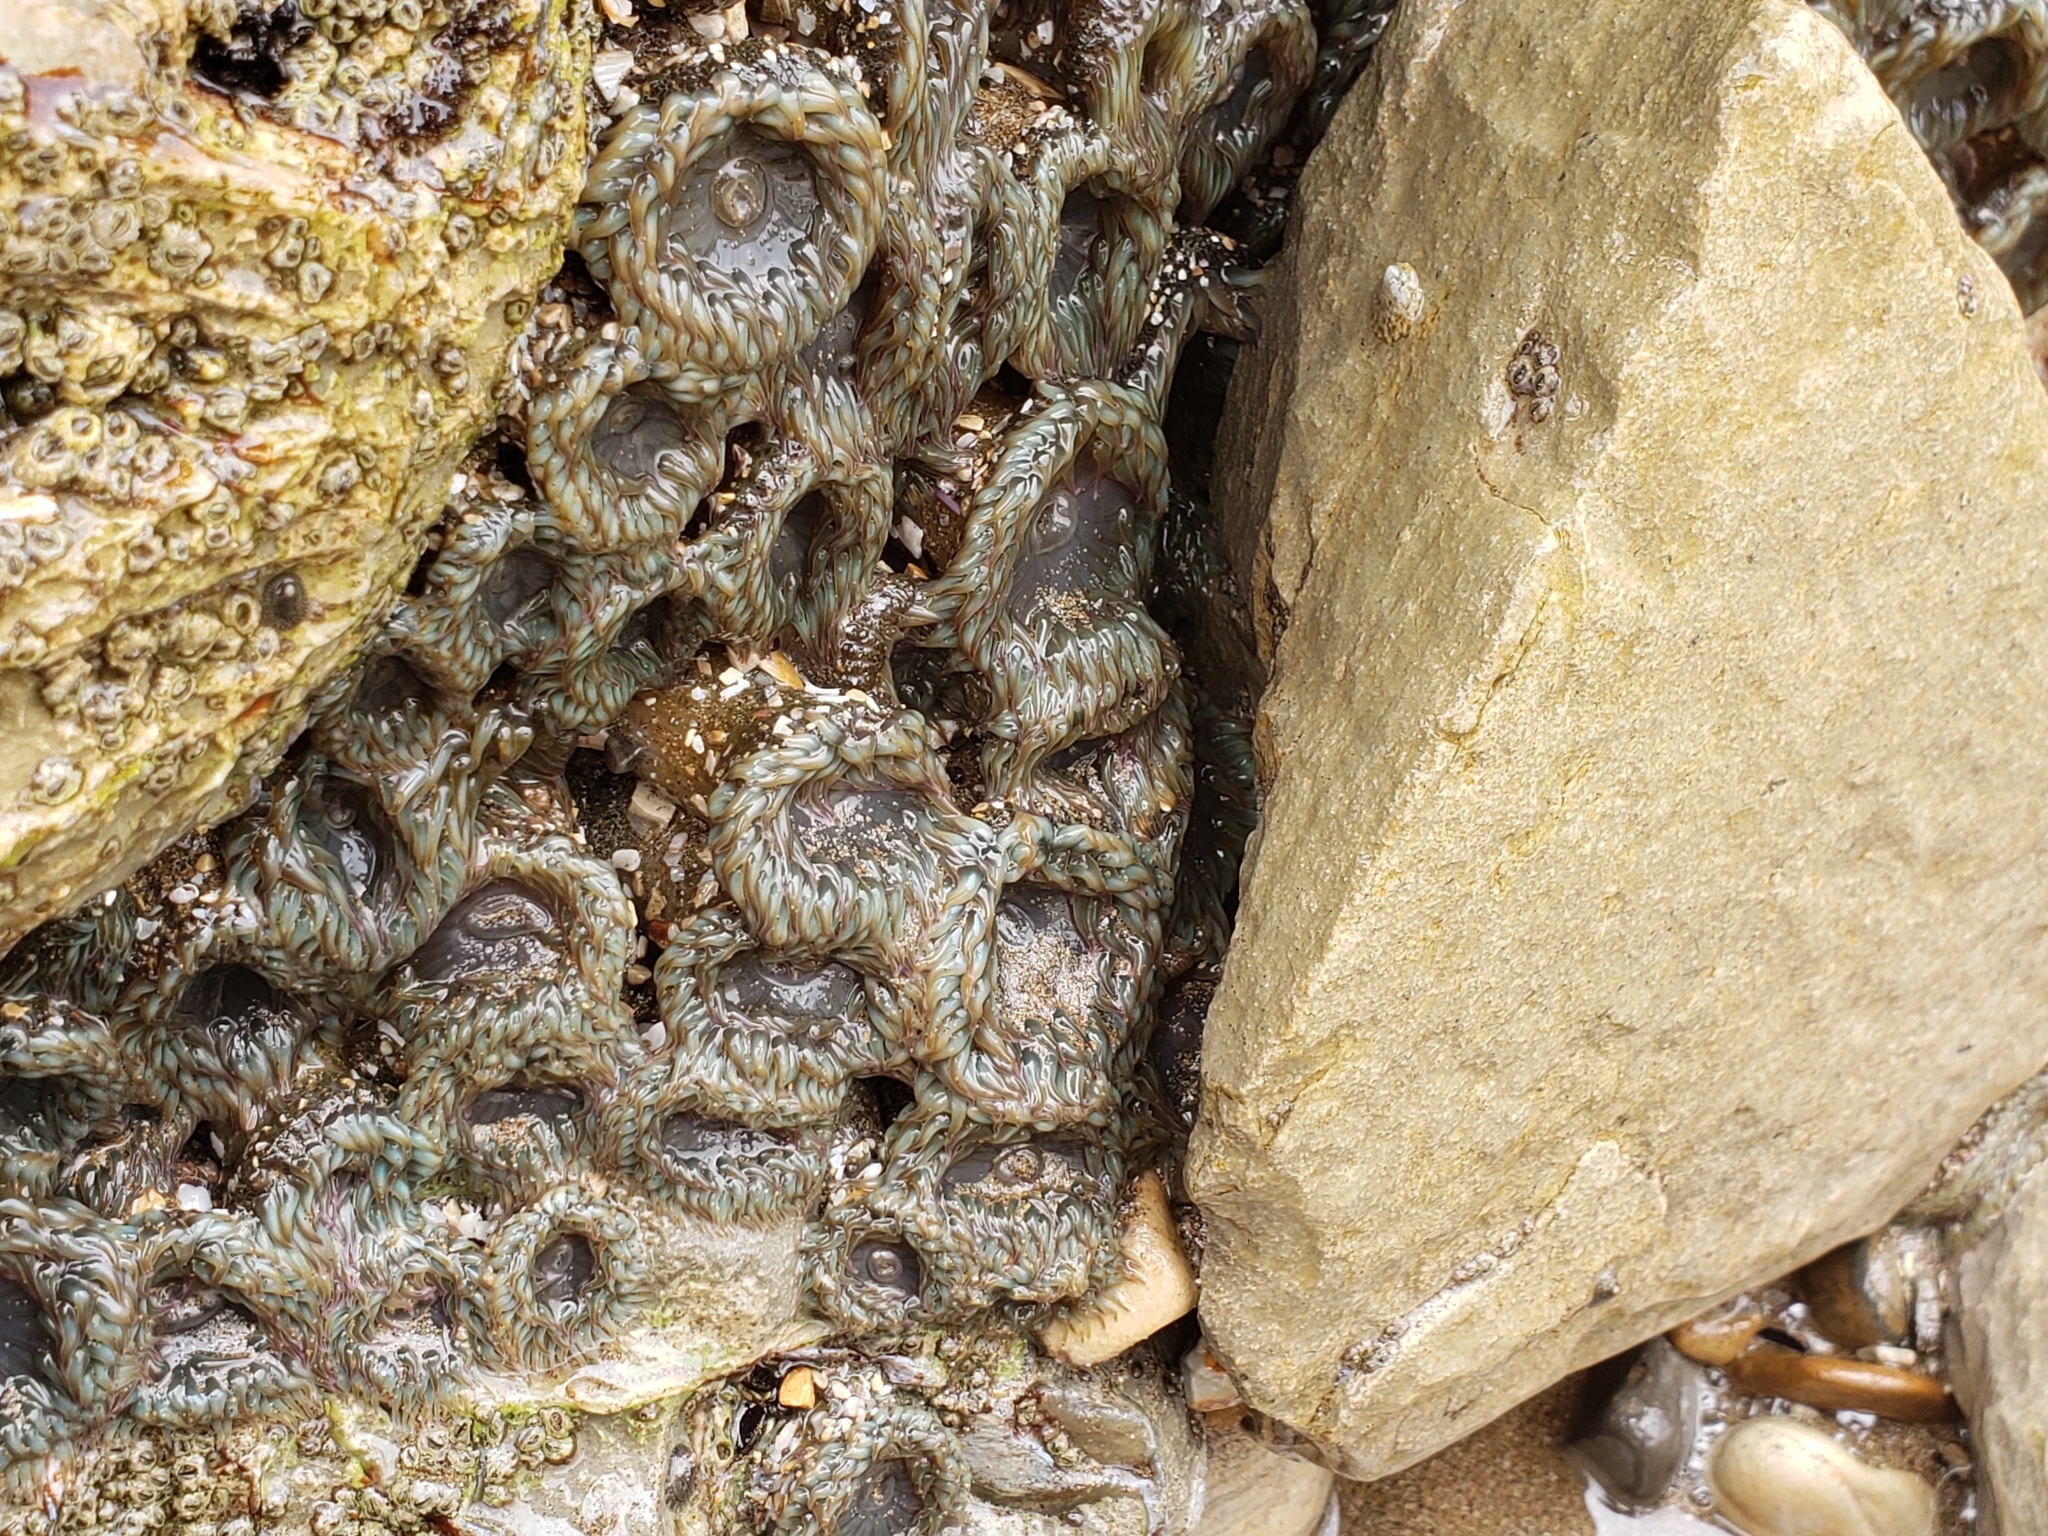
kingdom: Animalia
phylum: Cnidaria
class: Anthozoa
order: Actiniaria
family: Actiniidae
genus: Anthopleura
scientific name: Anthopleura elegantissima
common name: Clonal anemone
